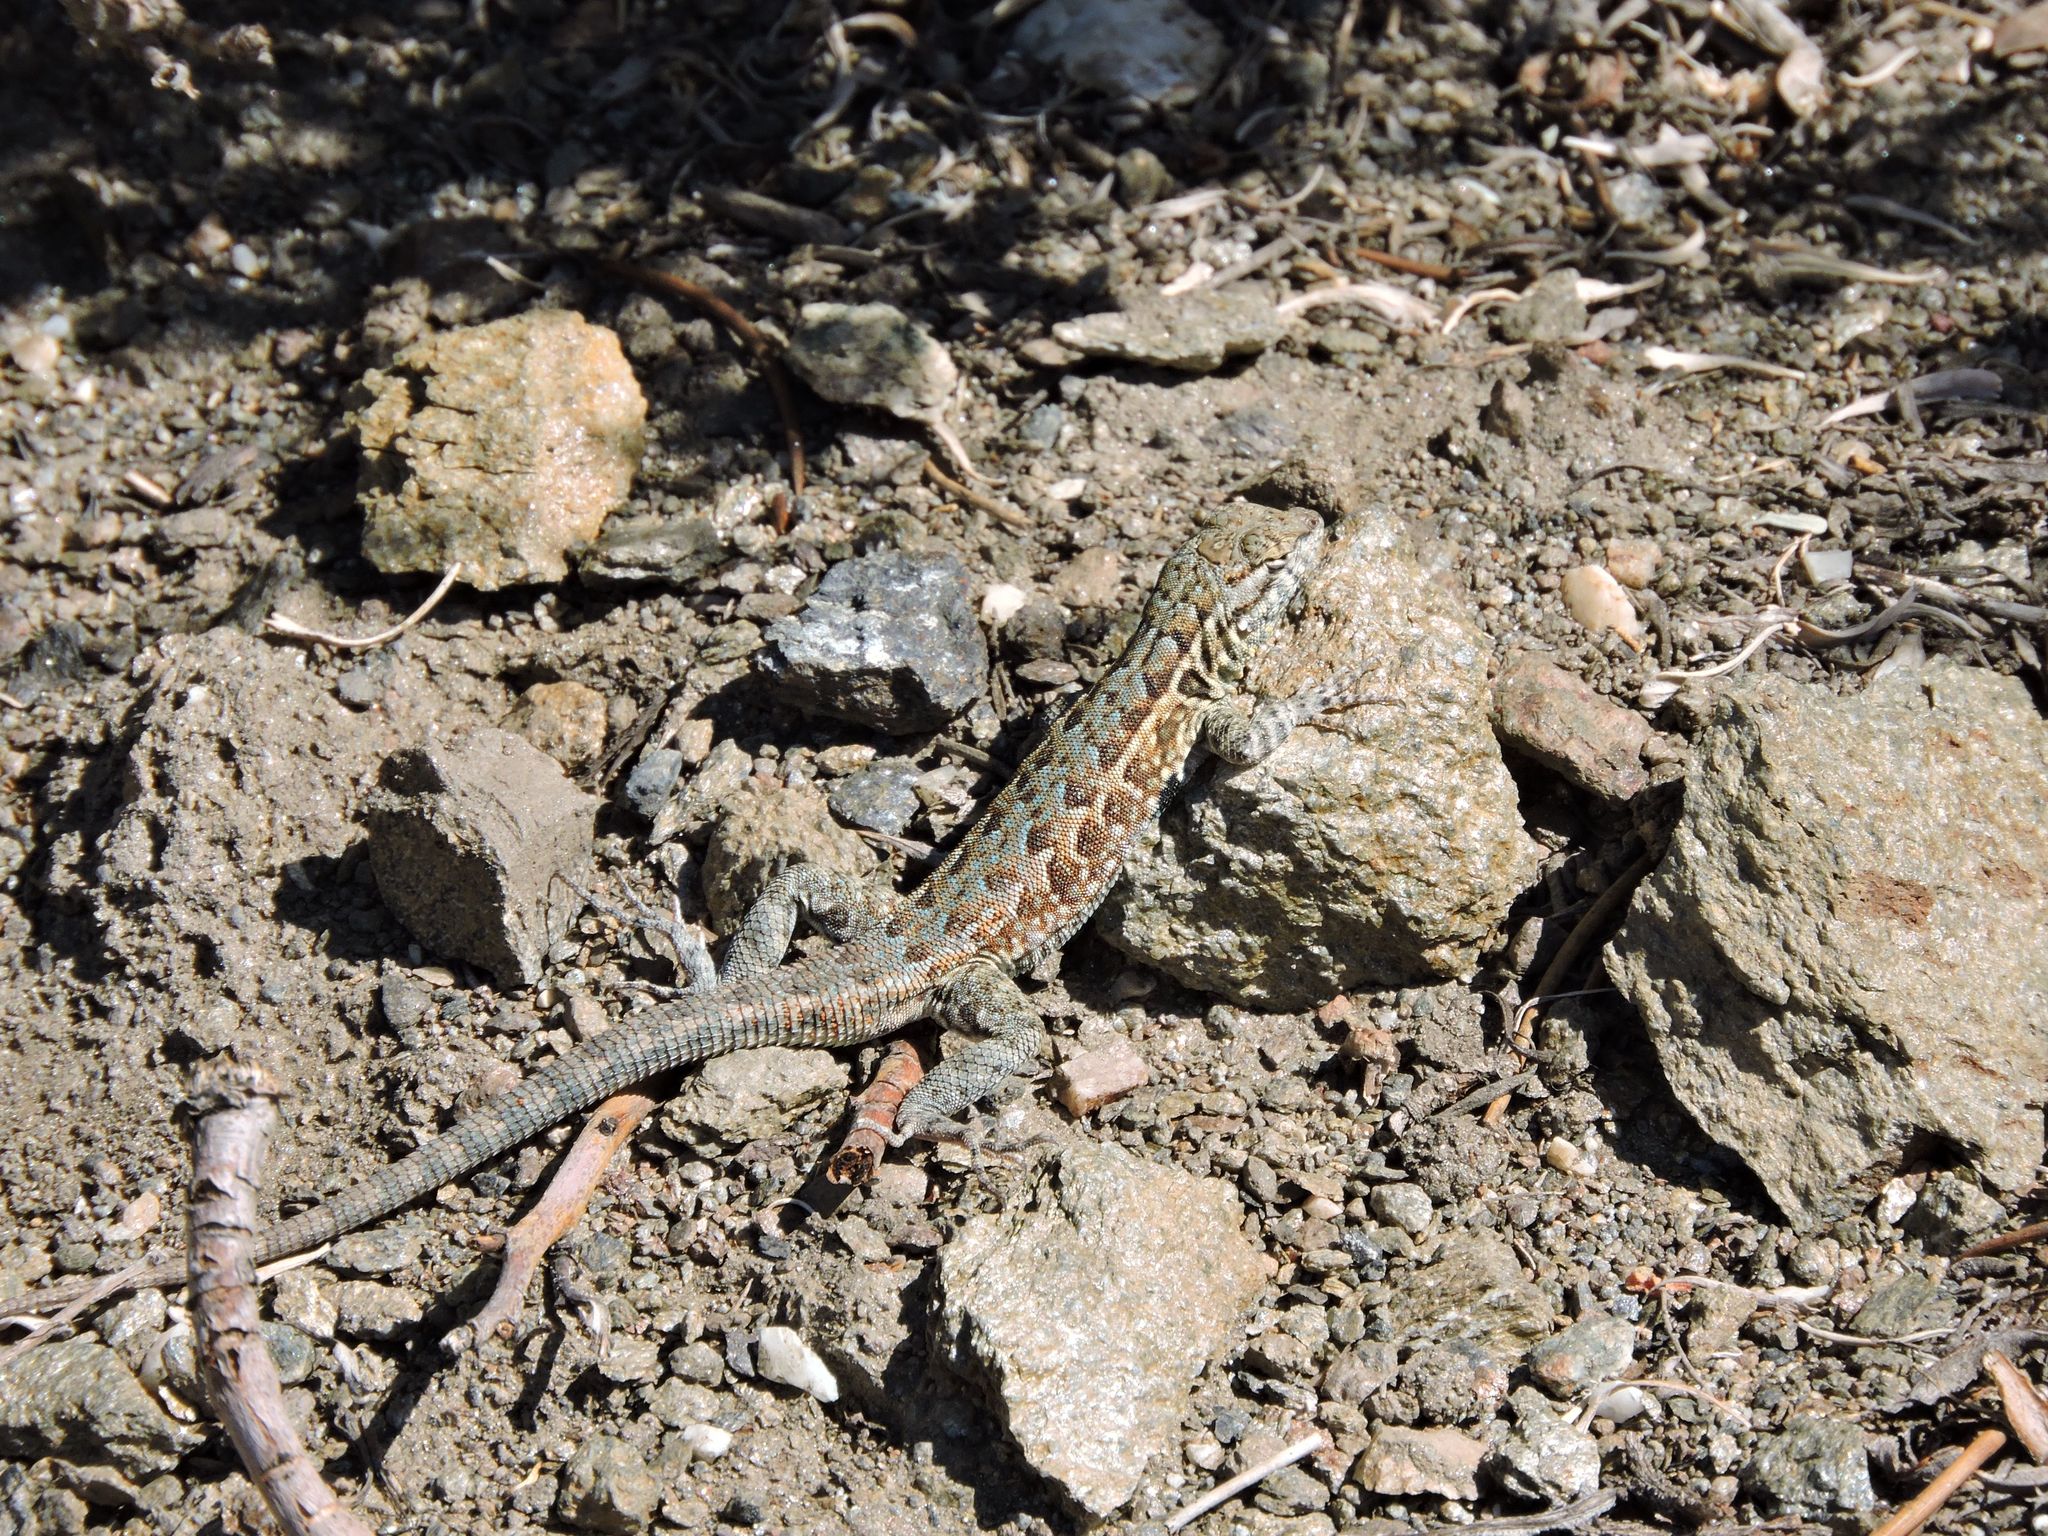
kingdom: Animalia
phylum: Chordata
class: Squamata
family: Phrynosomatidae
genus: Uta
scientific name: Uta stansburiana
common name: Side-blotched lizard
